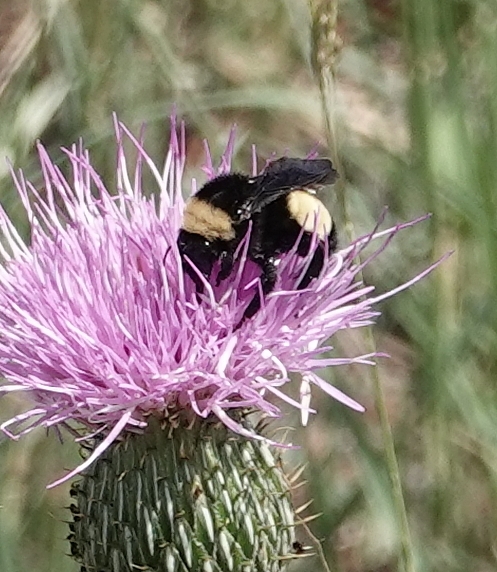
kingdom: Animalia
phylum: Arthropoda
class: Insecta
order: Hymenoptera
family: Apidae
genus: Bombus
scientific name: Bombus pensylvanicus
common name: Bumble bee
